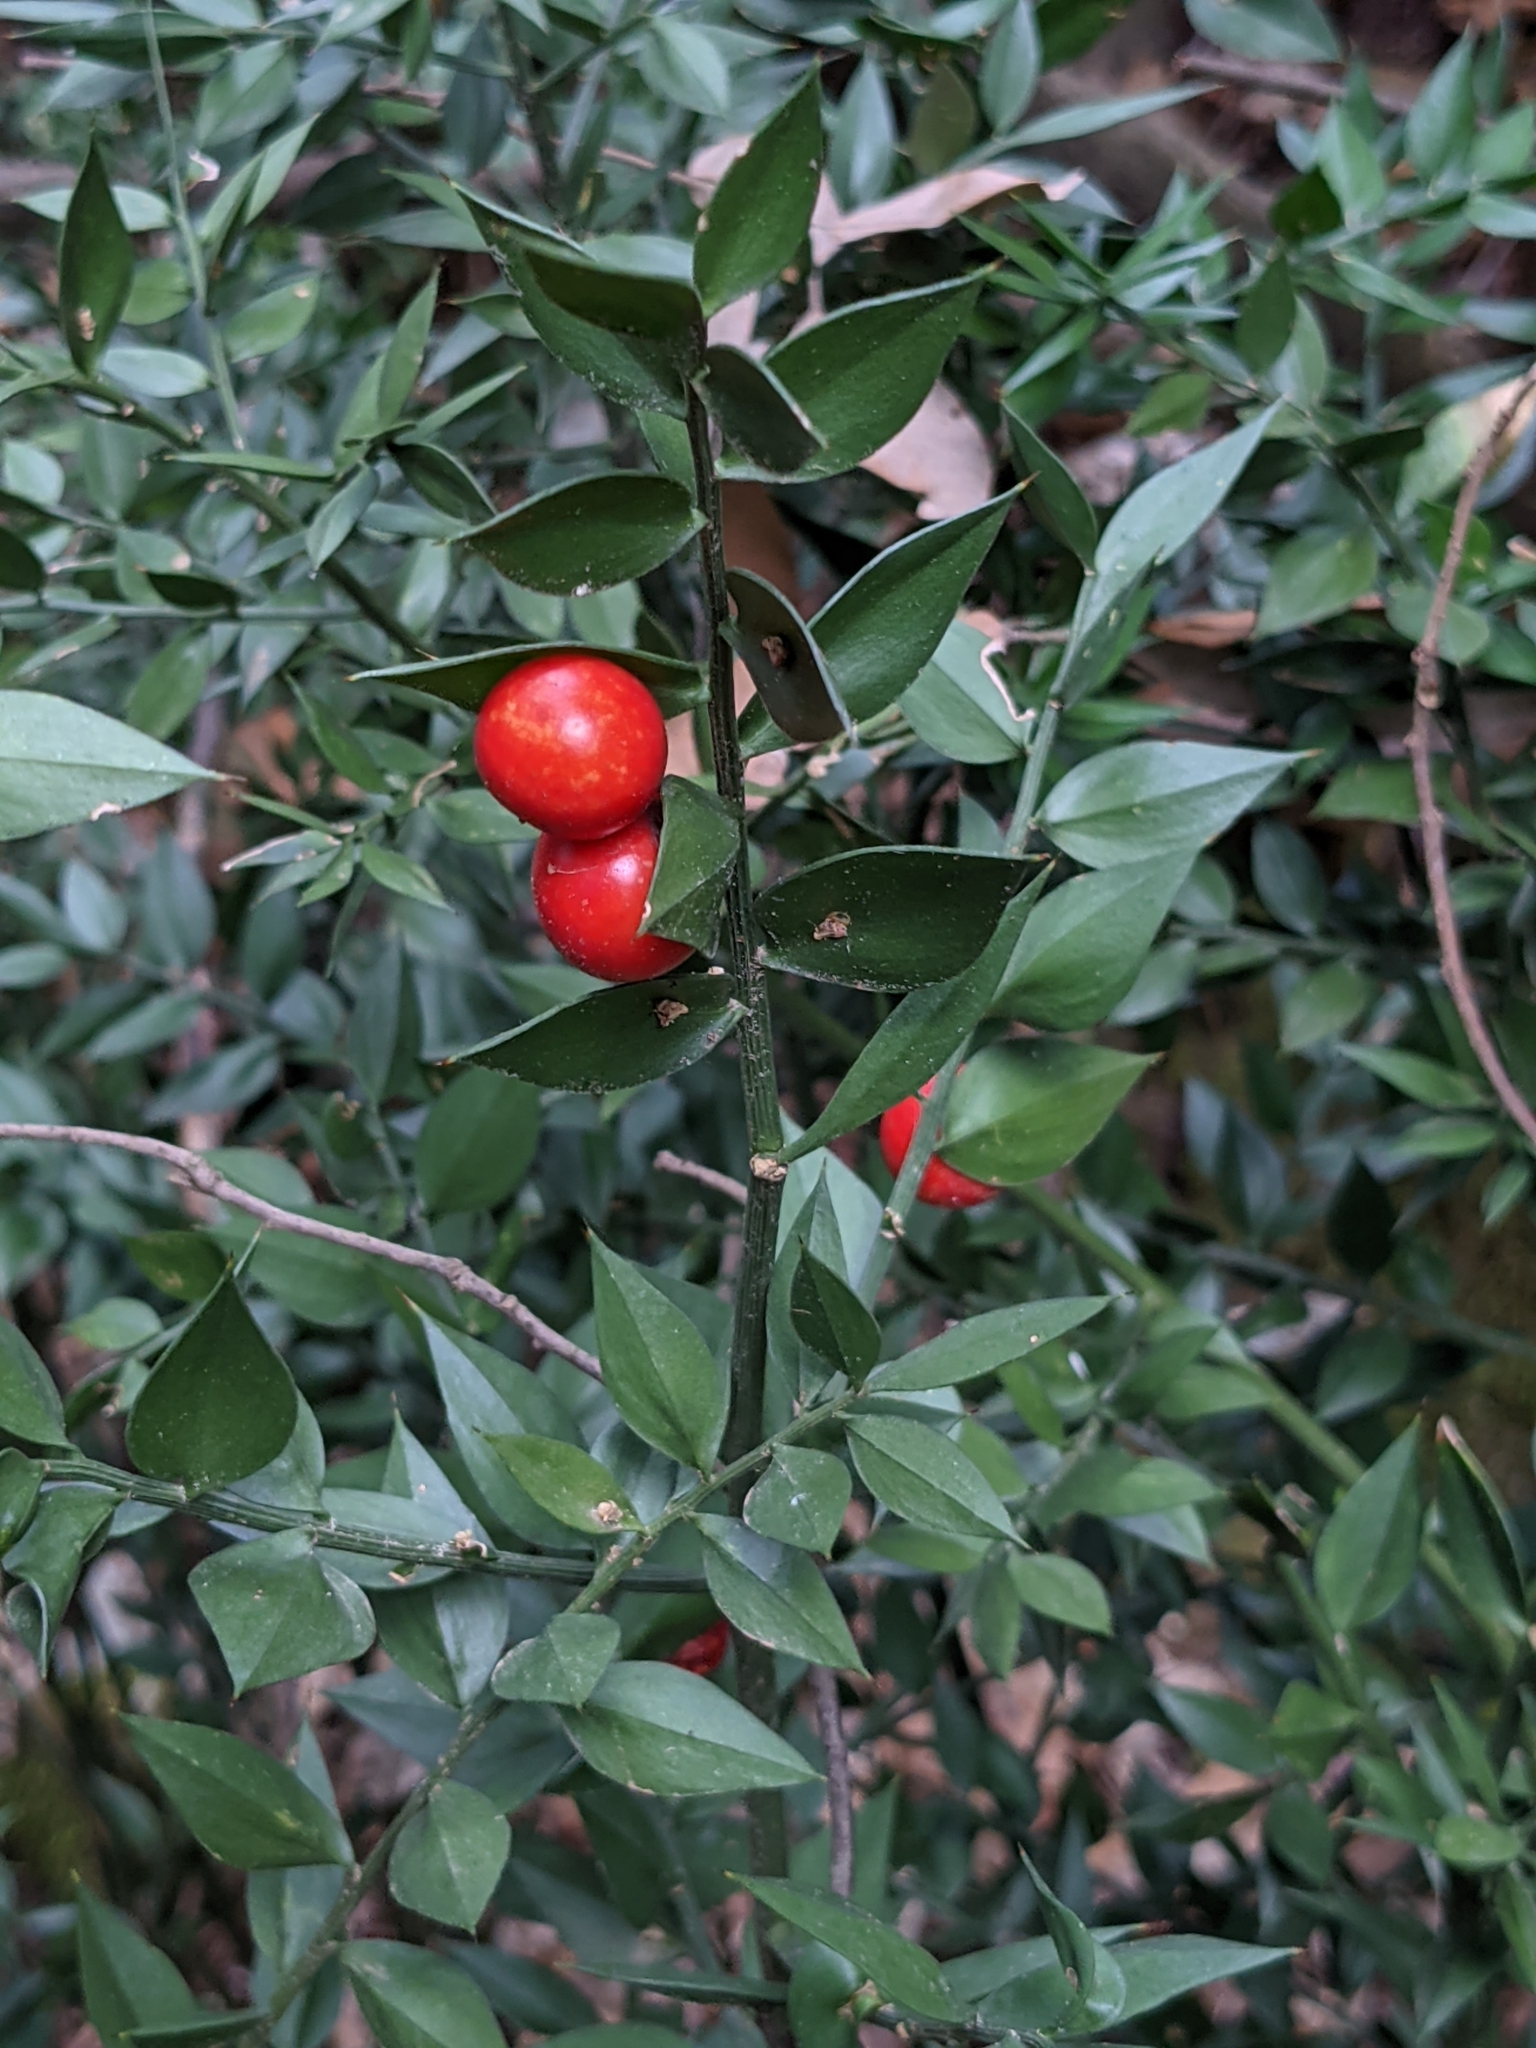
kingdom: Plantae
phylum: Tracheophyta
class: Liliopsida
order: Asparagales
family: Asparagaceae
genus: Ruscus
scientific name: Ruscus aculeatus
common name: Butcher's-broom
